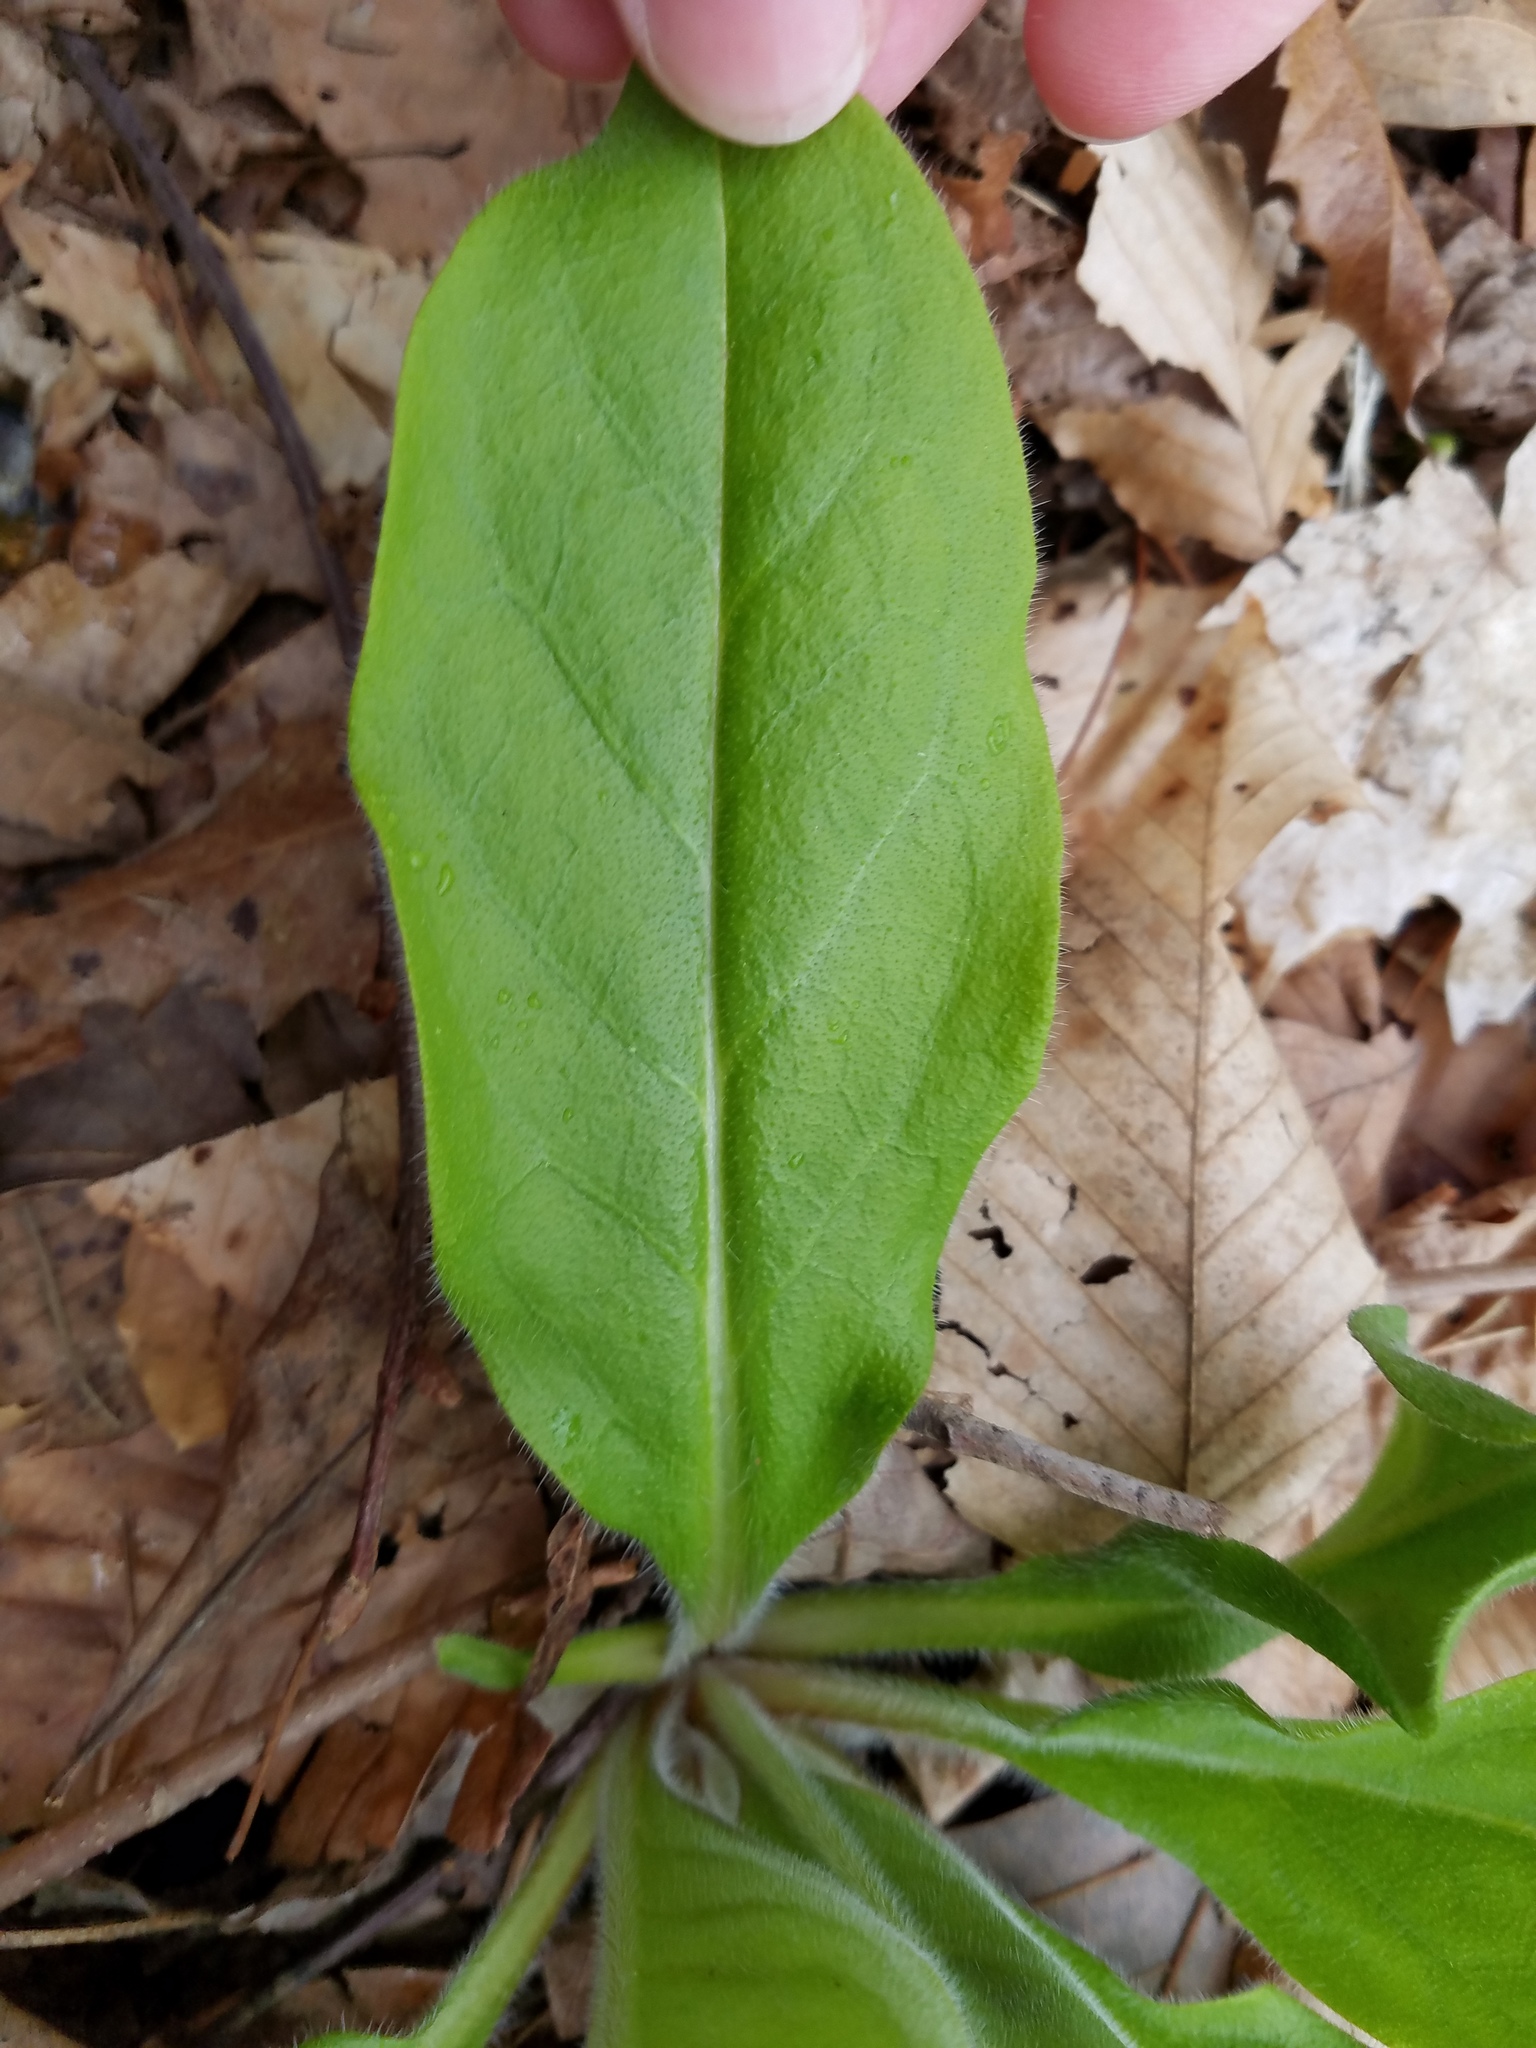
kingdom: Plantae
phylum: Tracheophyta
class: Magnoliopsida
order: Boraginales
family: Boraginaceae
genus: Andersonglossum
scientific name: Andersonglossum virginianum
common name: Wild comfrey
